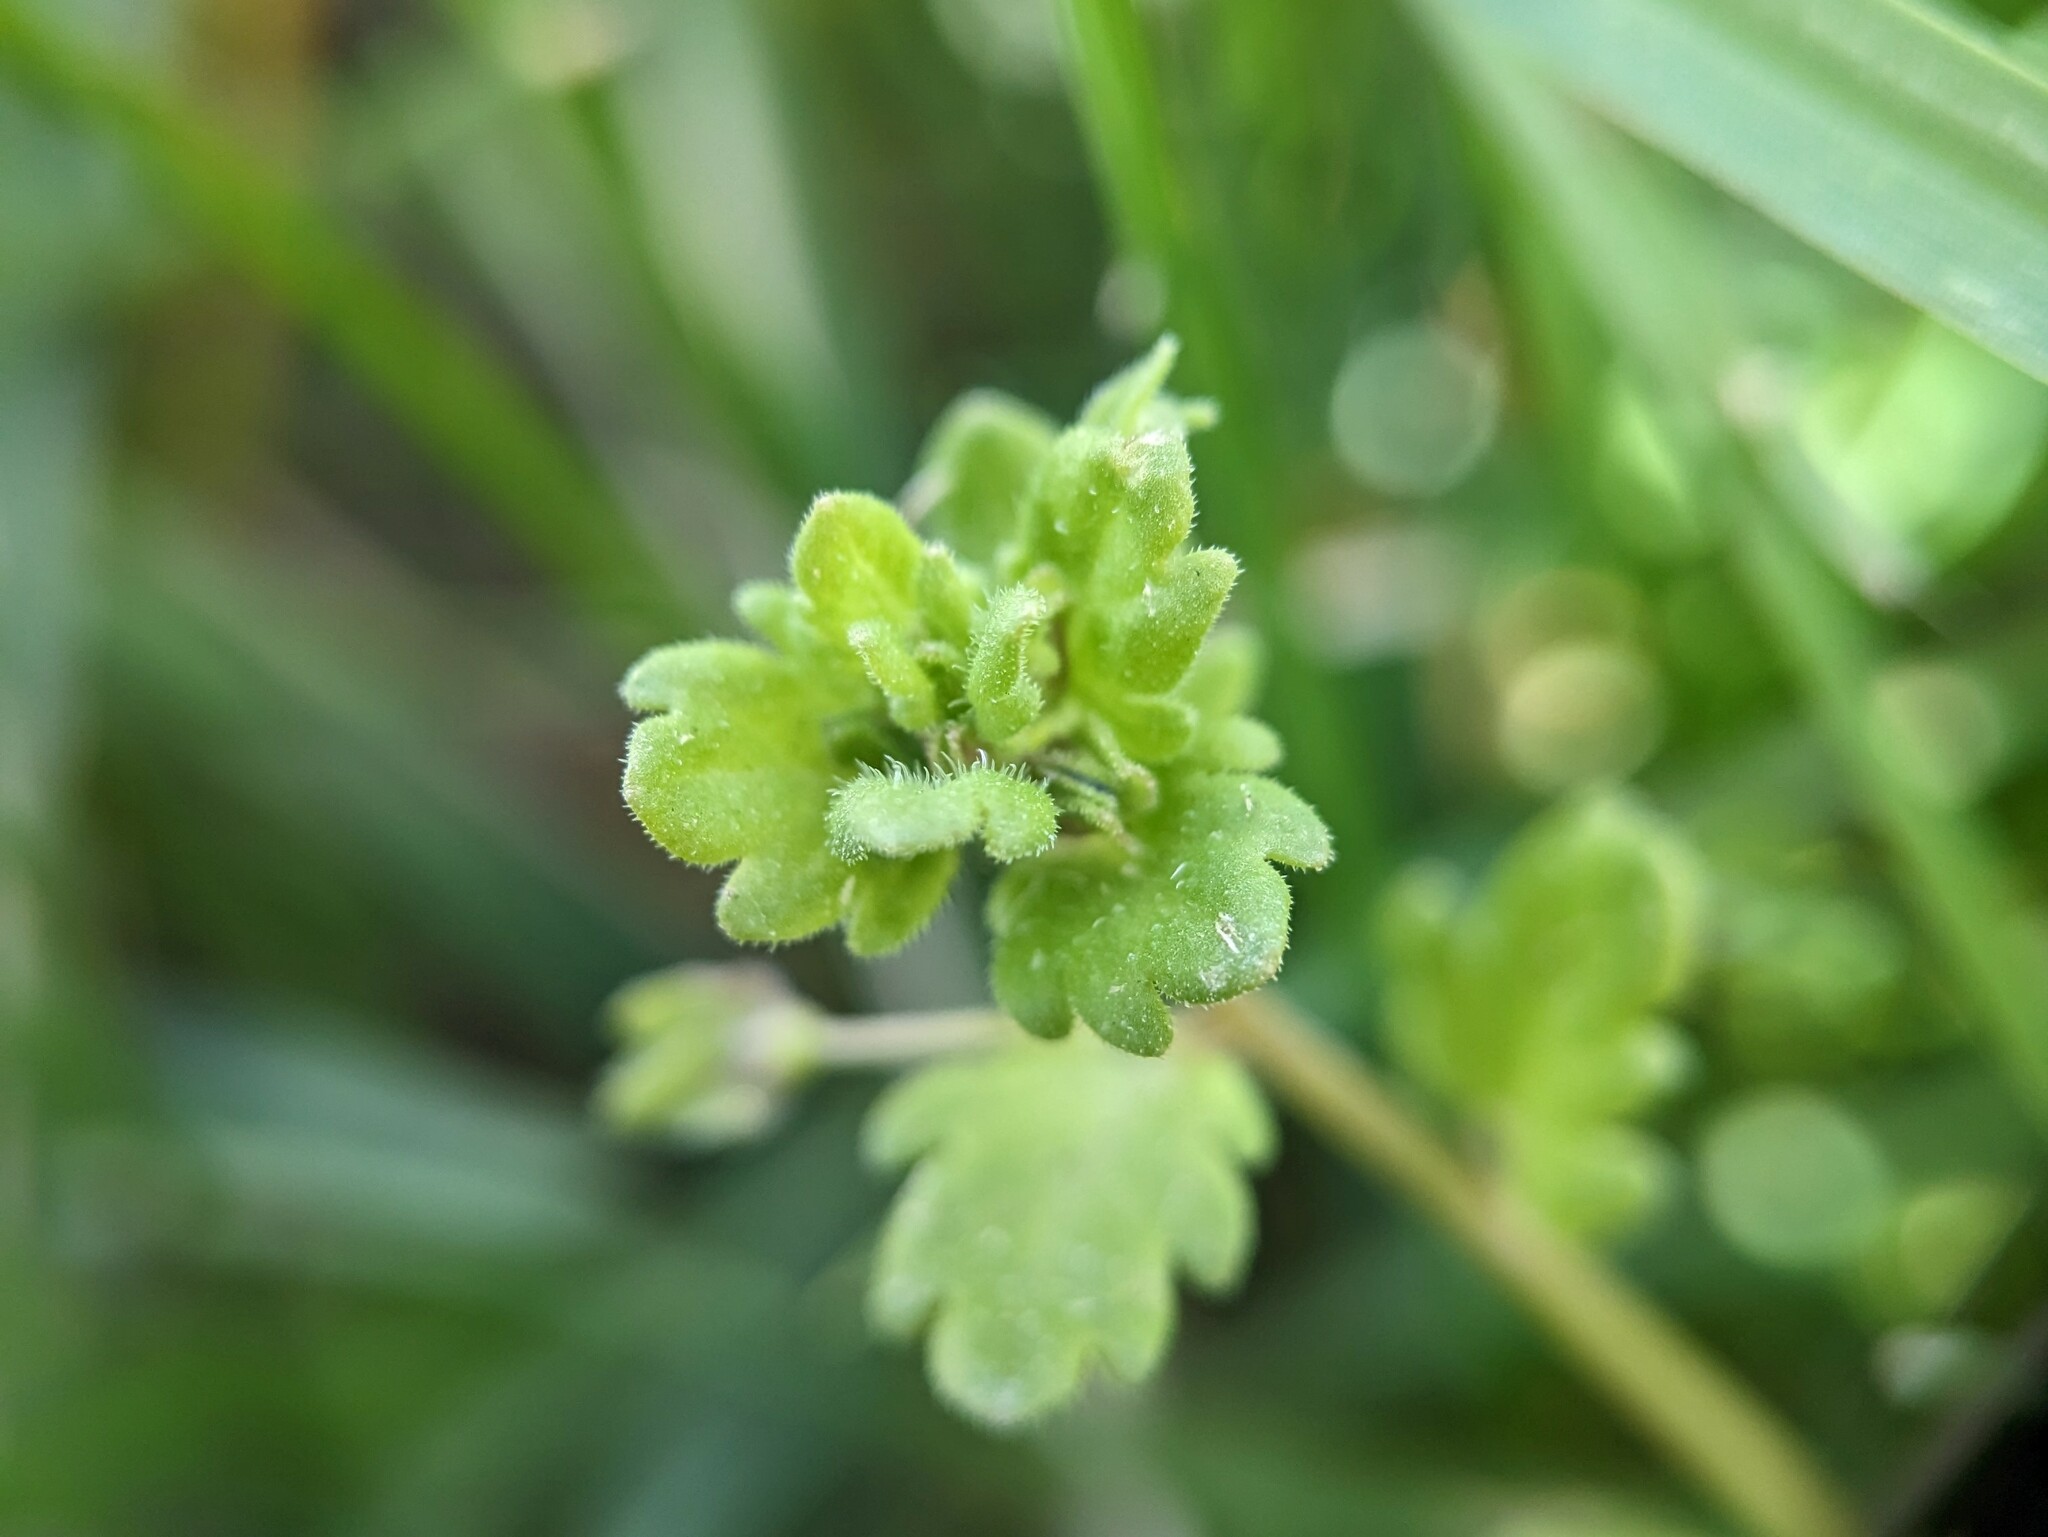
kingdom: Plantae
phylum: Tracheophyta
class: Magnoliopsida
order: Lamiales
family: Plantaginaceae
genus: Veronica
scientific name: Veronica polita
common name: Grey field-speedwell
